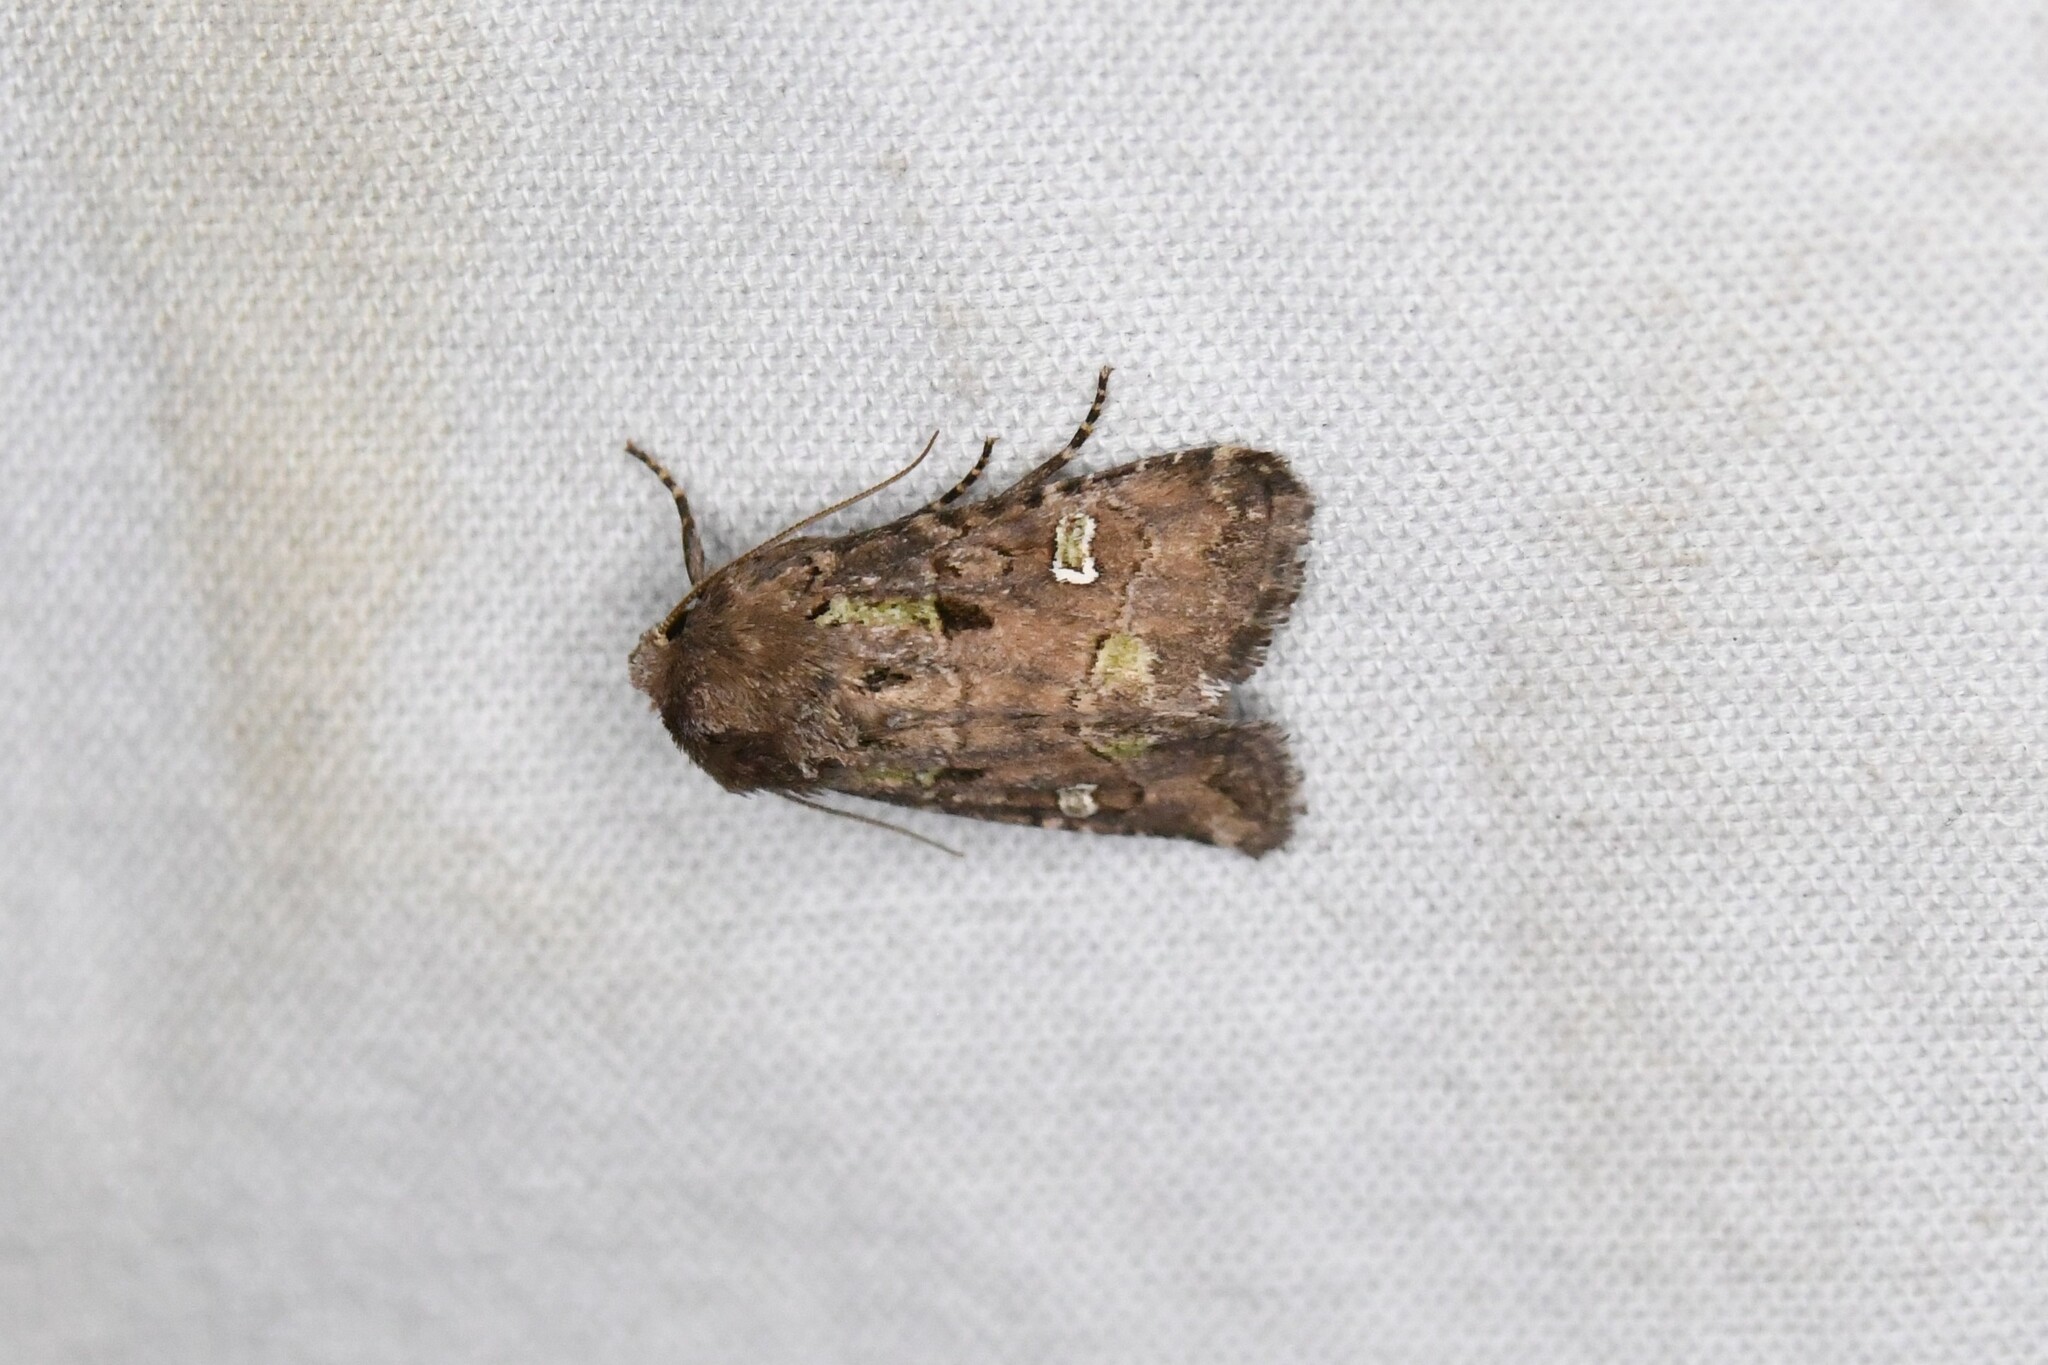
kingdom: Animalia
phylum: Arthropoda
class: Insecta
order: Lepidoptera
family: Noctuidae
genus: Lacinipolia
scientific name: Lacinipolia renigera
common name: Kidney-spotted minor
